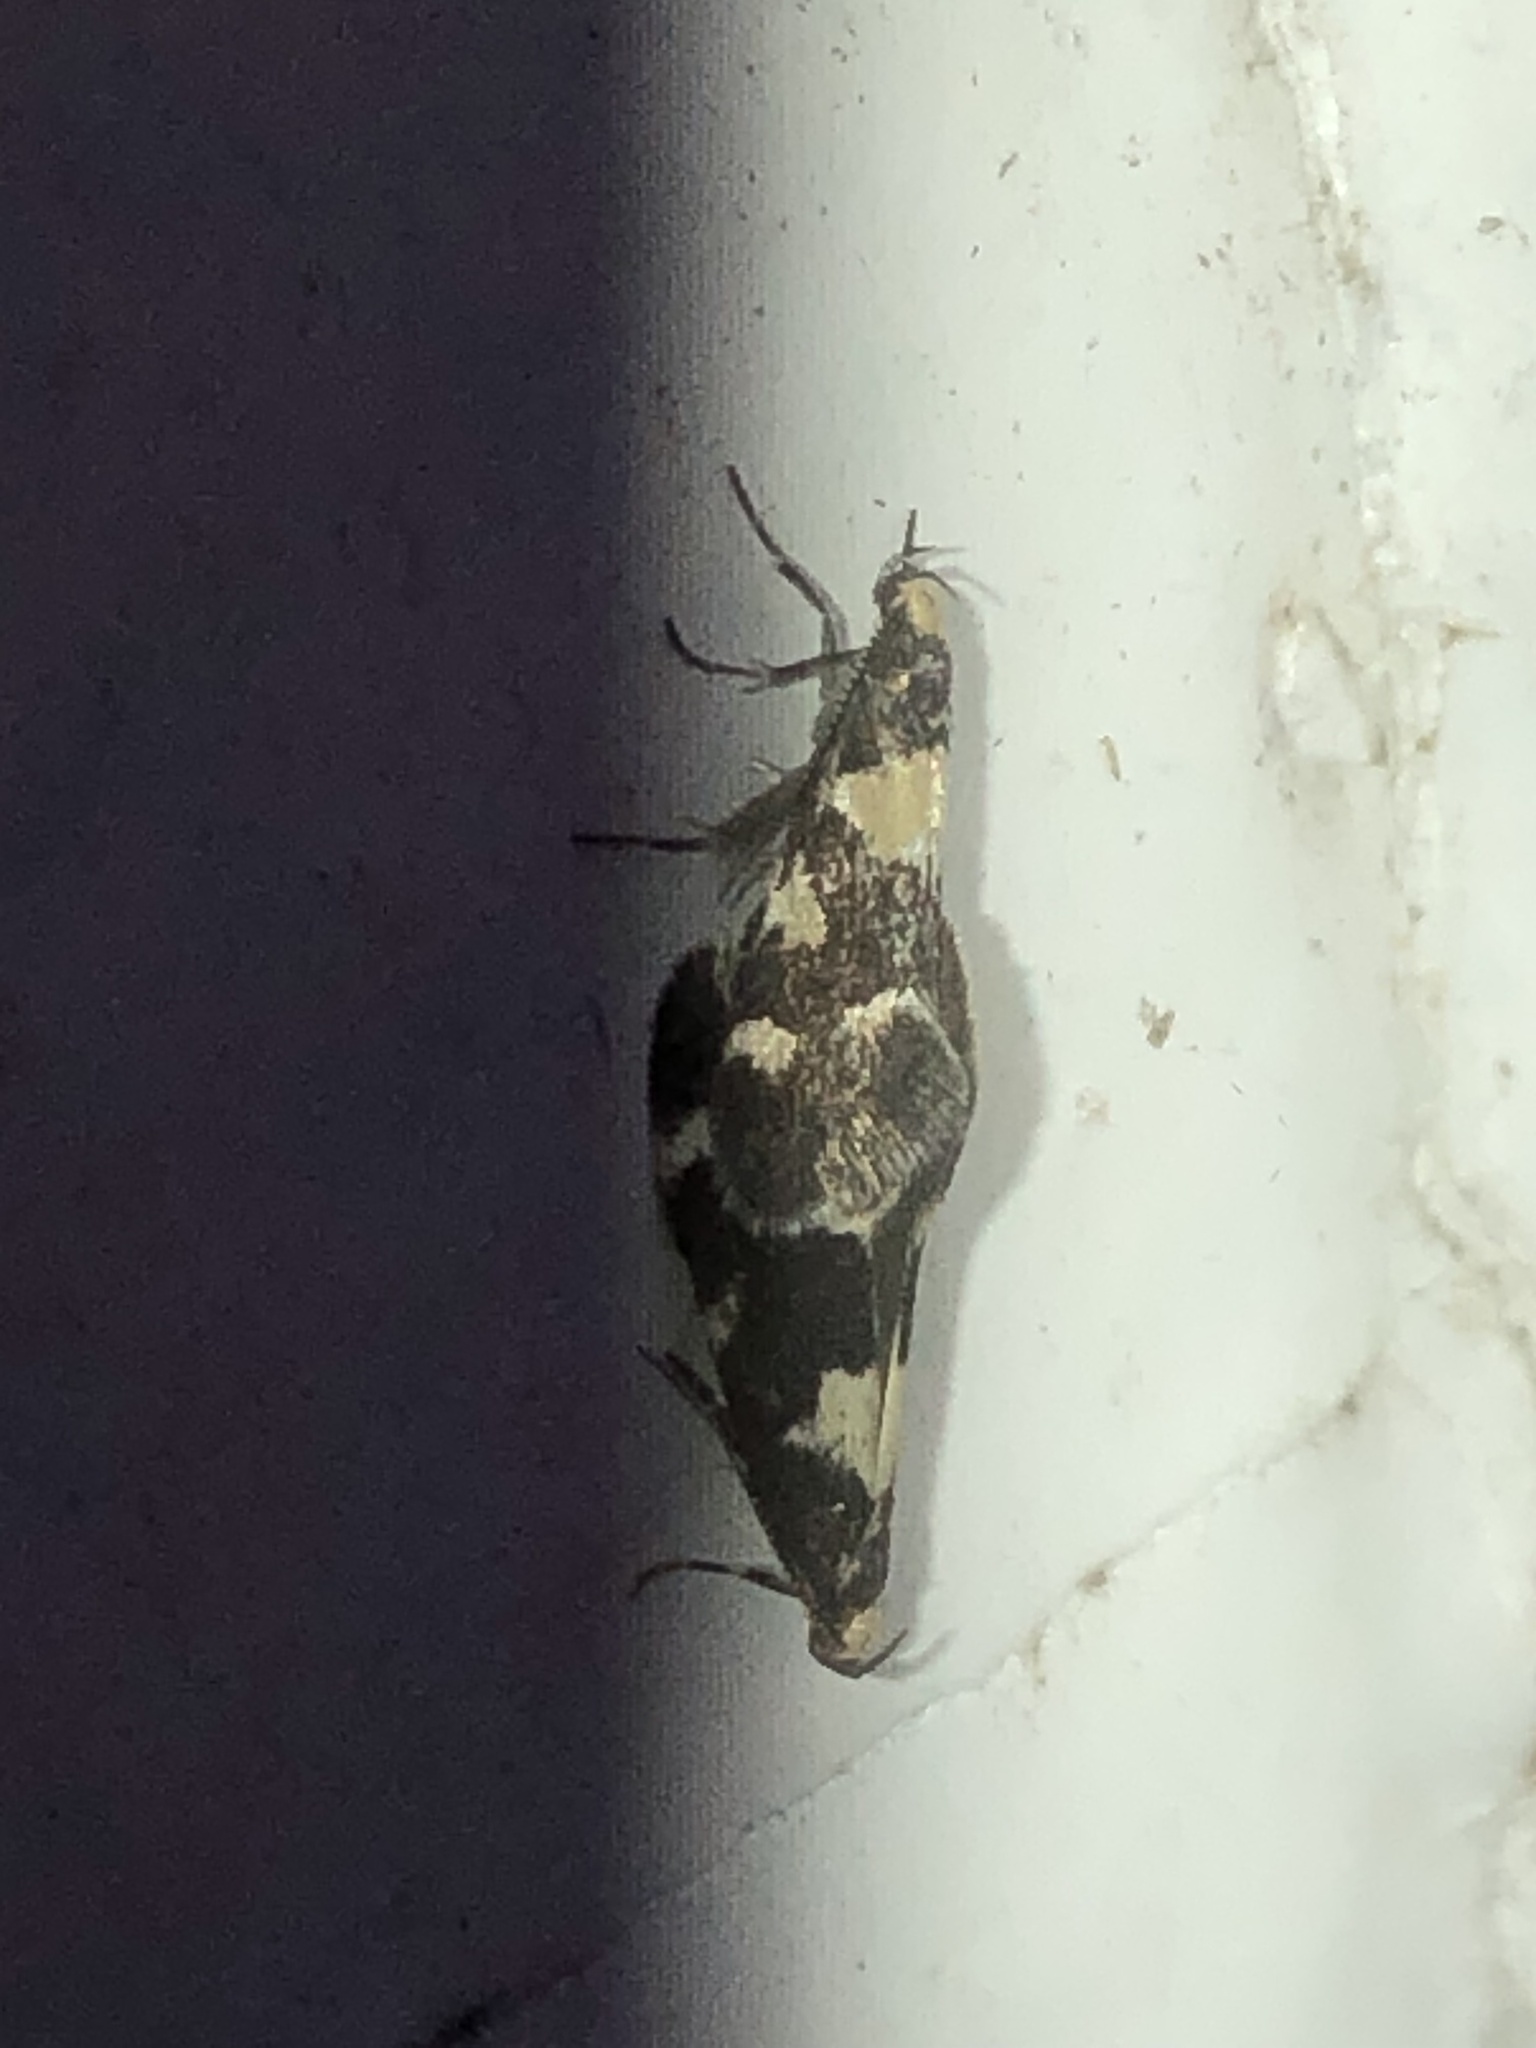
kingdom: Animalia
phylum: Arthropoda
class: Insecta
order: Lepidoptera
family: Oecophoridae
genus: Brymblia
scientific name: Brymblia quadrimaculella
